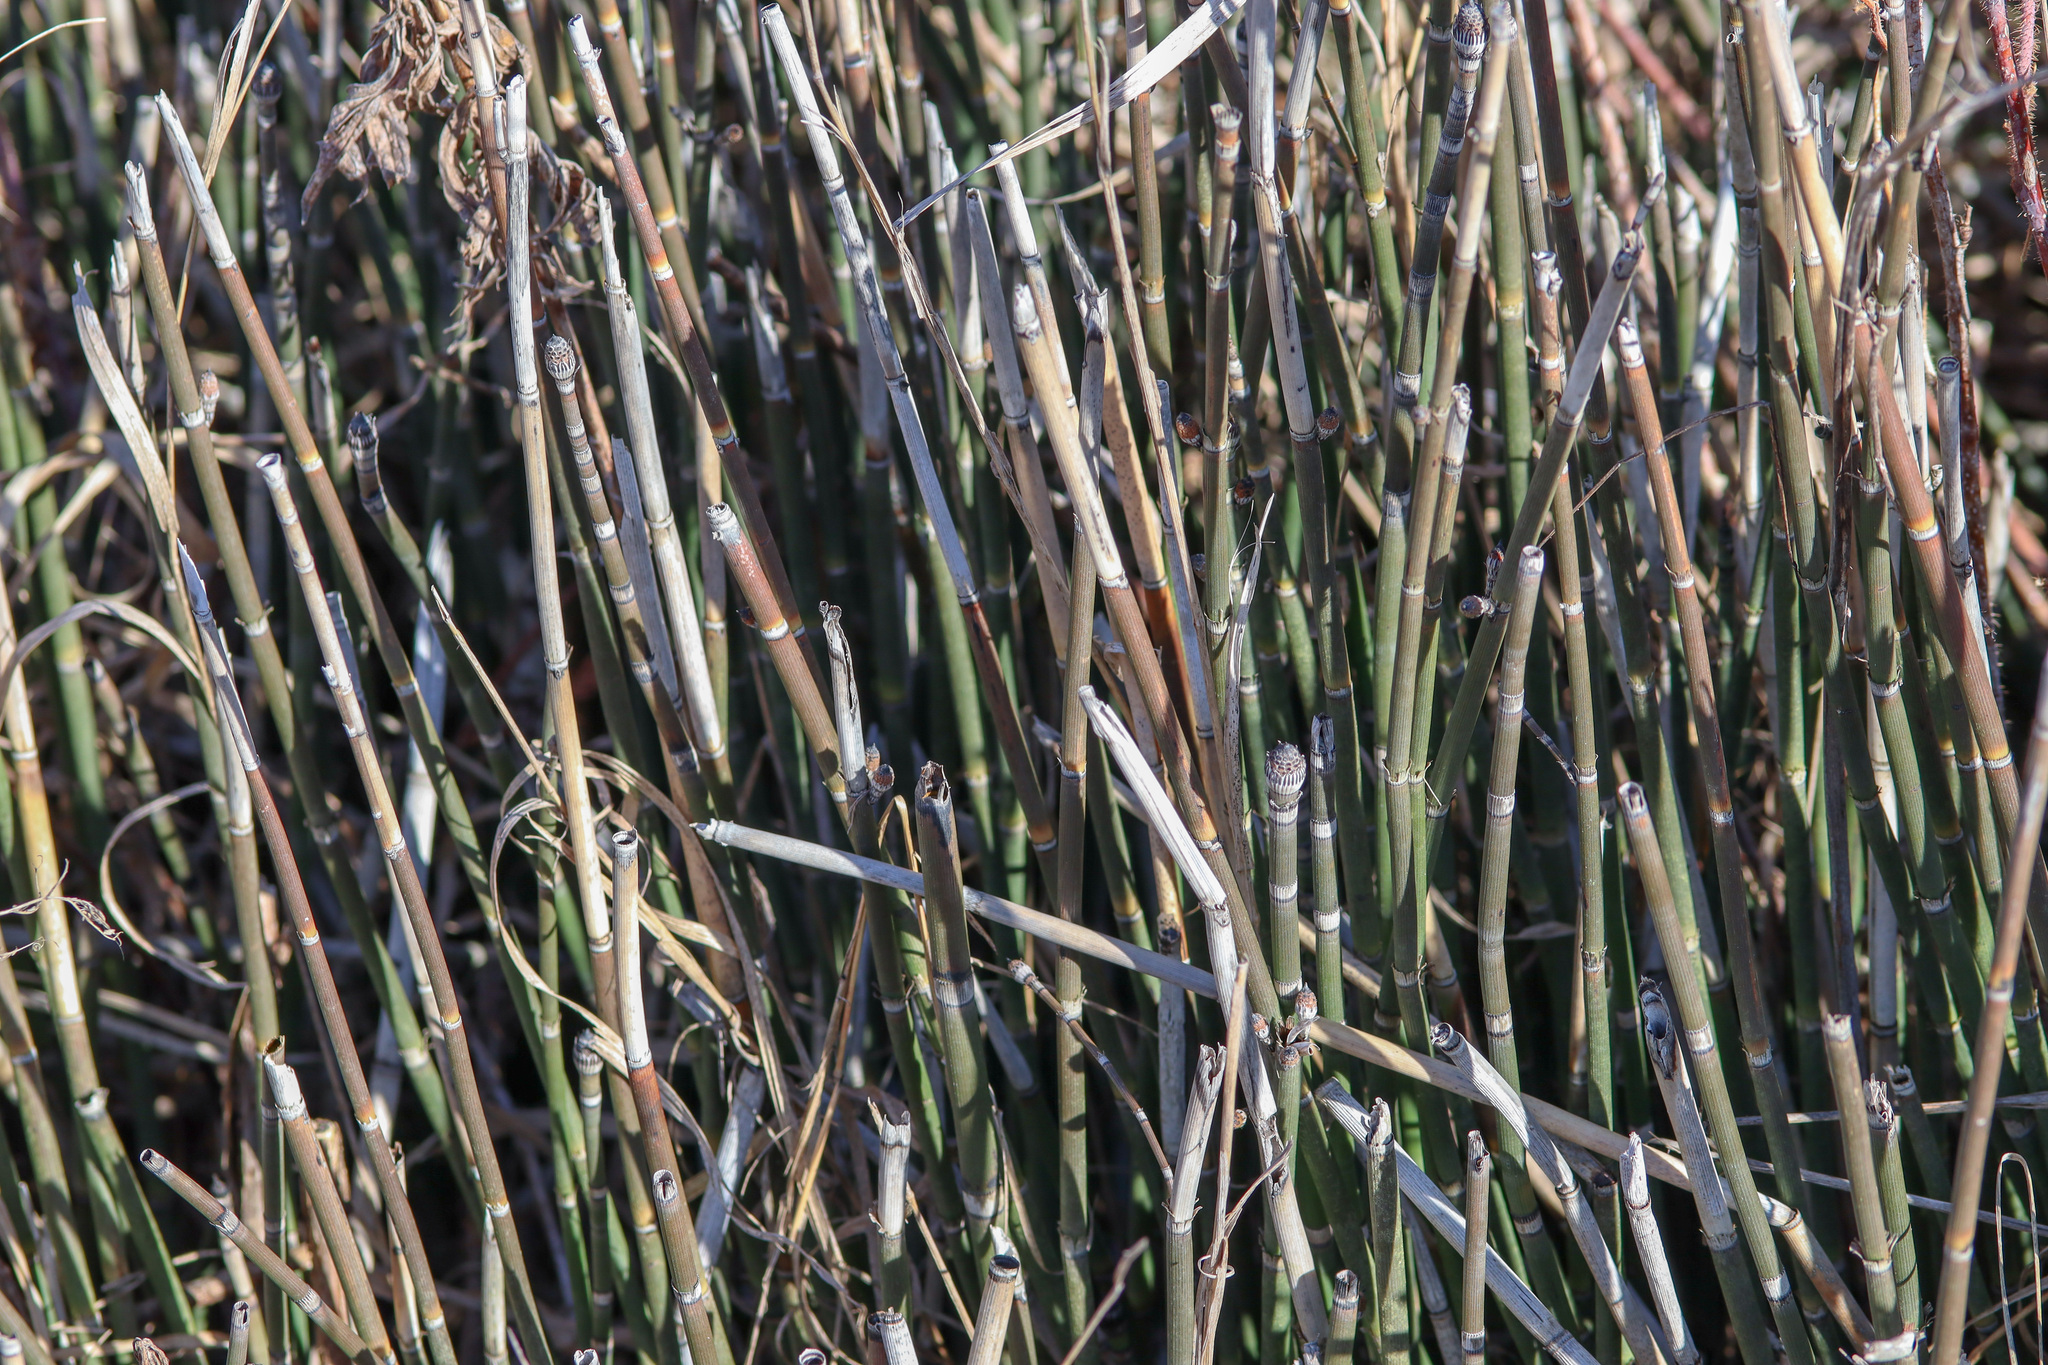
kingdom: Plantae
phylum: Tracheophyta
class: Polypodiopsida
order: Equisetales
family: Equisetaceae
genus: Equisetum
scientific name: Equisetum hyemale
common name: Rough horsetail
